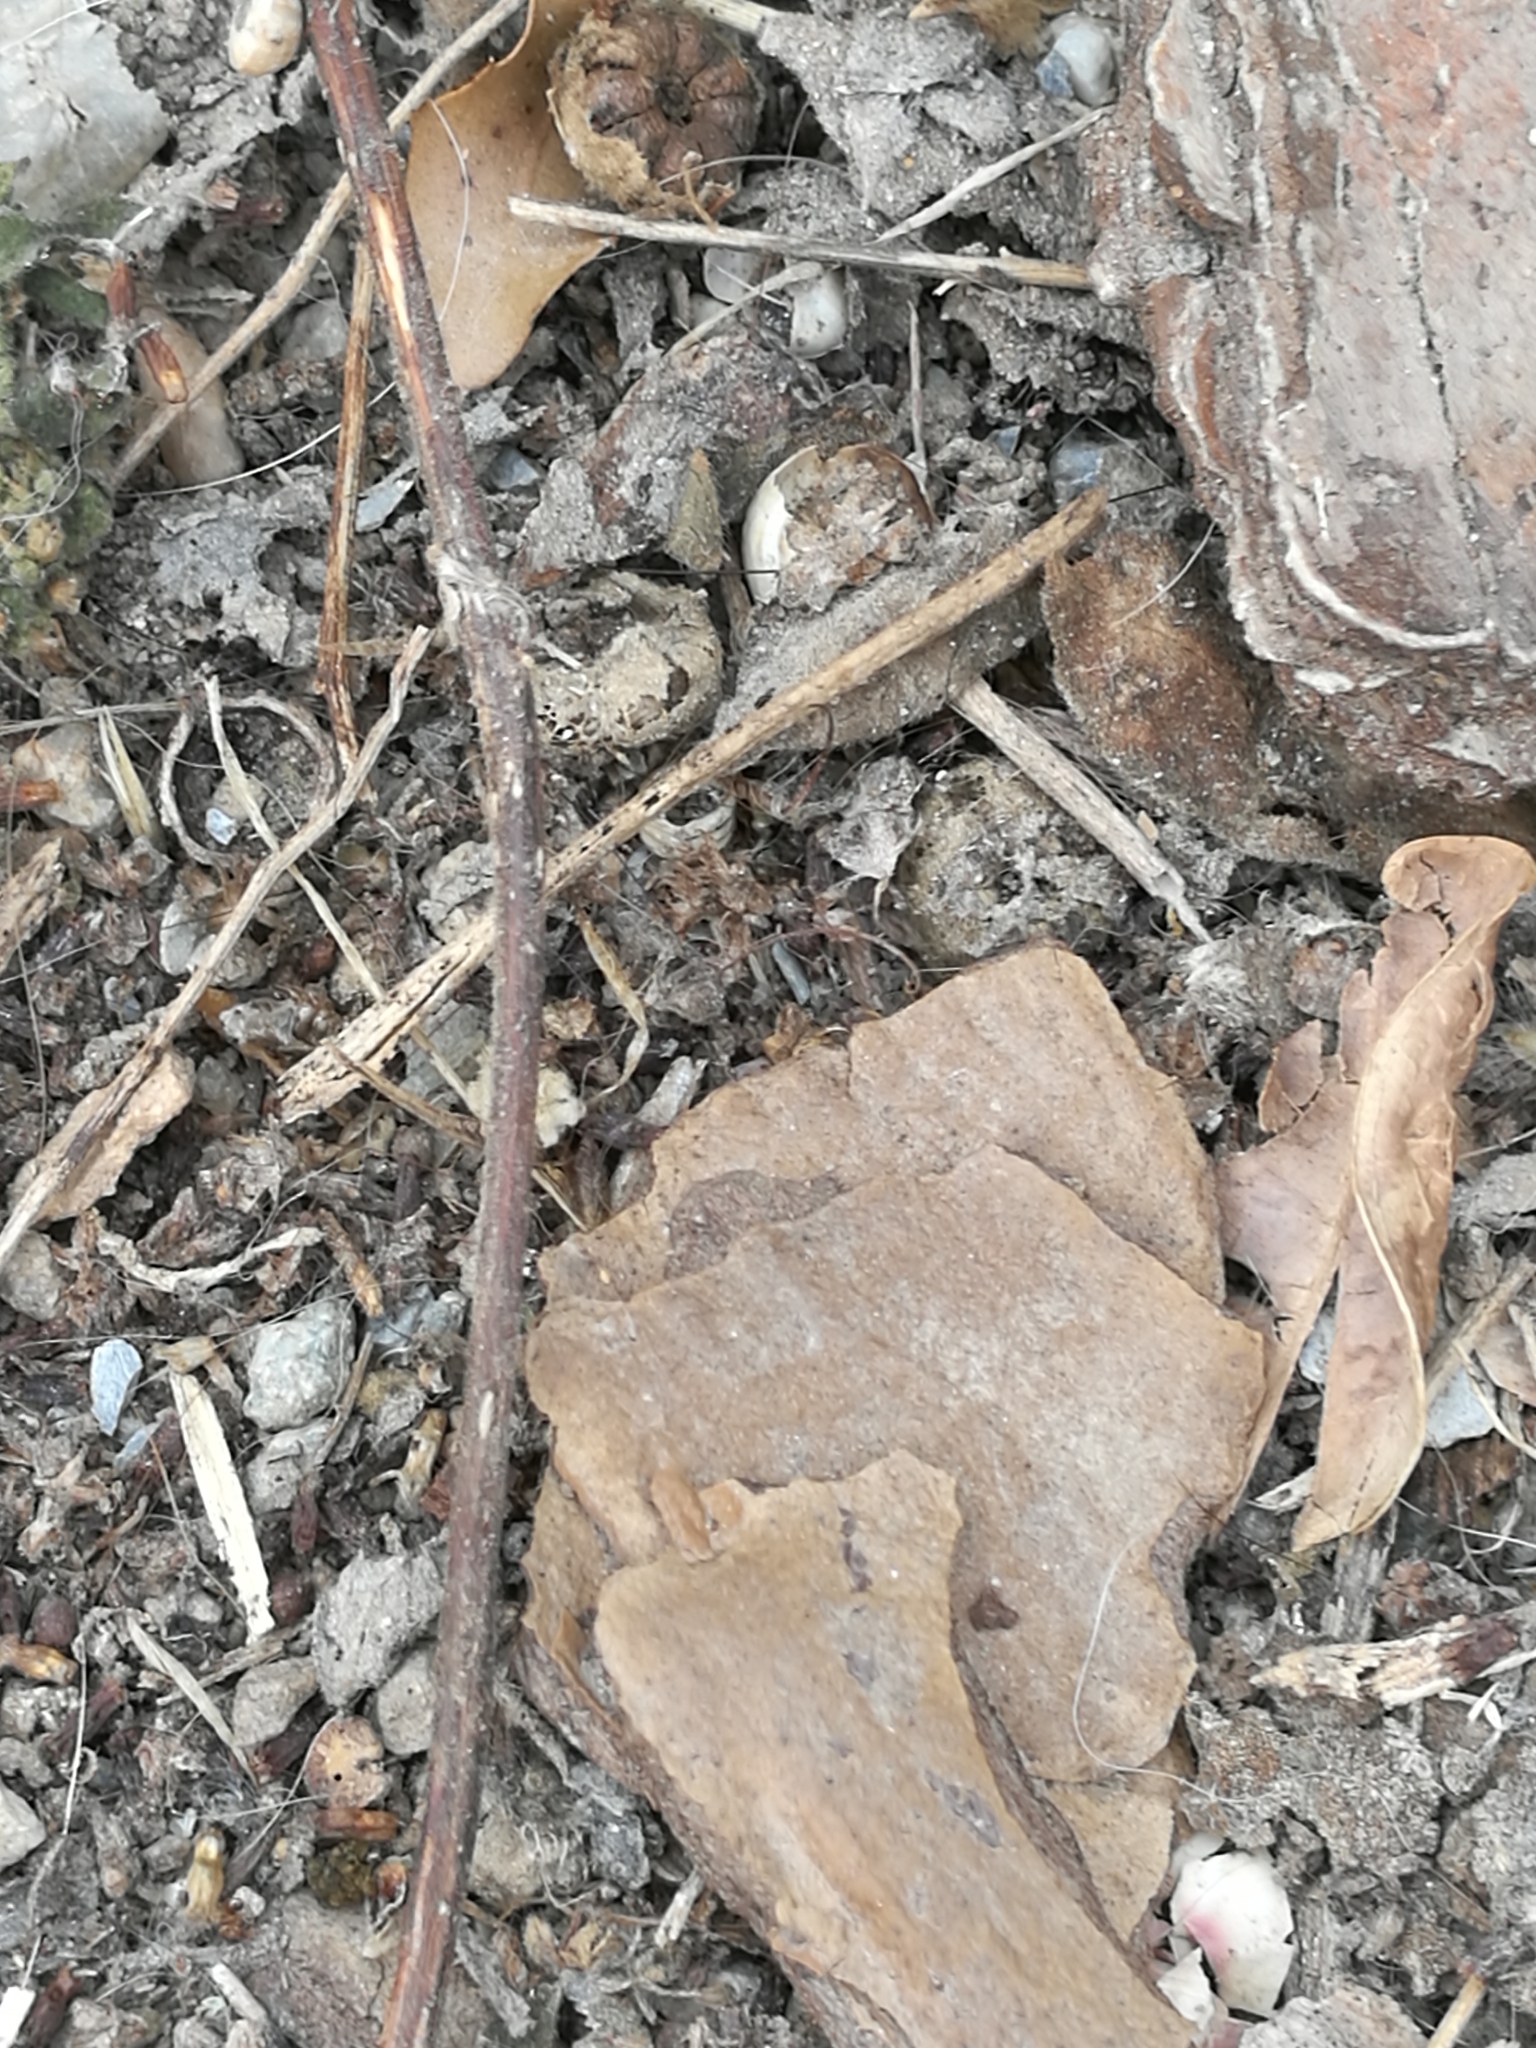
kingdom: Animalia
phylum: Arthropoda
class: Insecta
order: Hemiptera
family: Pyrrhocoridae
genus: Pyrrhocoris
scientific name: Pyrrhocoris apterus
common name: Firebug
